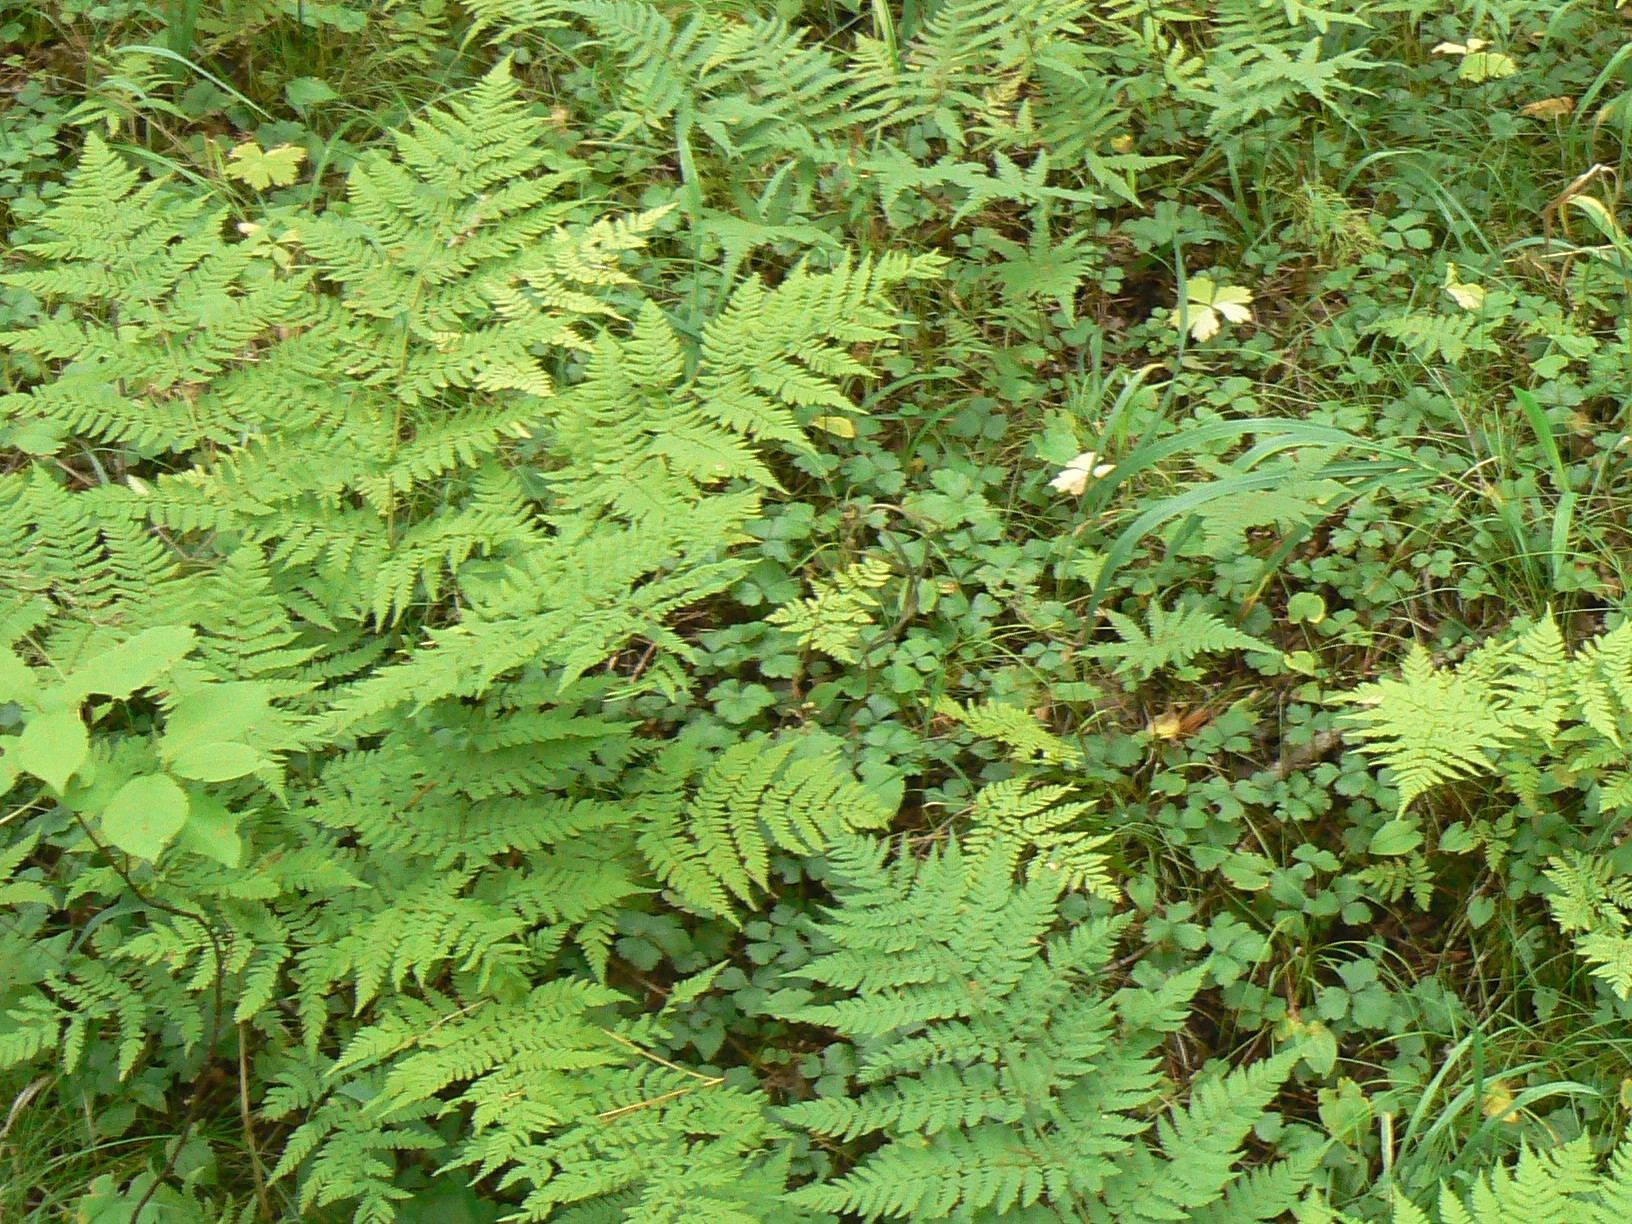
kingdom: Plantae
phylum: Tracheophyta
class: Polypodiopsida
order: Polypodiales
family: Dryopteridaceae
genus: Dryopteris
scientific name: Dryopteris expansa
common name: Northern buckler fern
